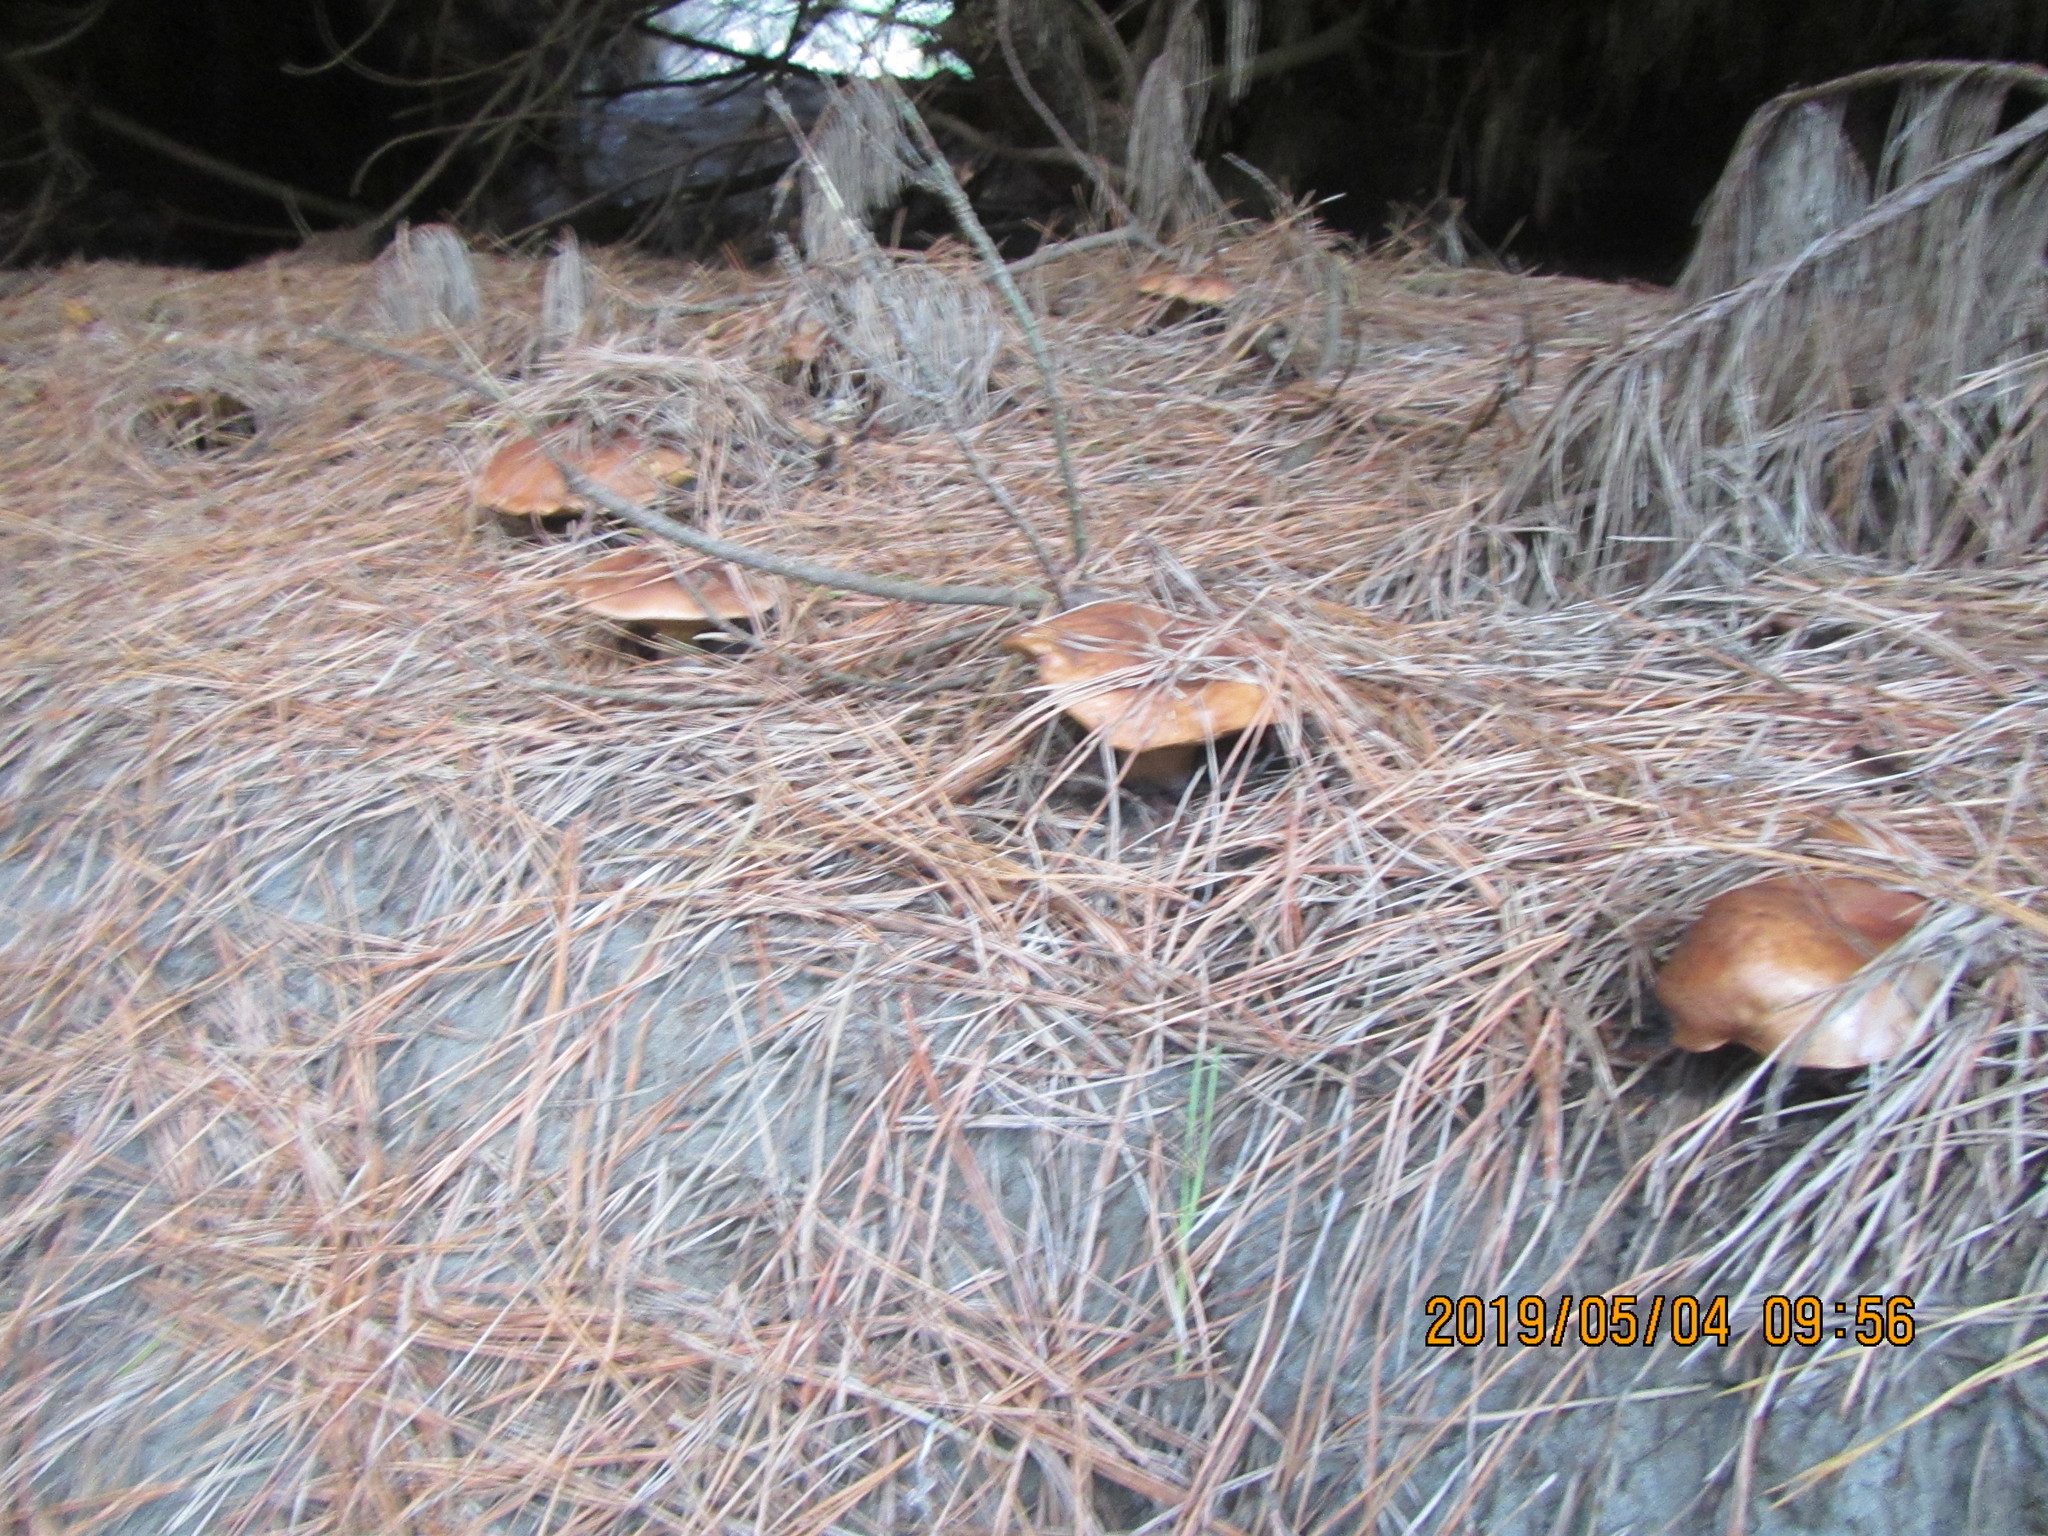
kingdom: Fungi
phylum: Basidiomycota
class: Agaricomycetes
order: Boletales
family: Suillaceae
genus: Suillus
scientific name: Suillus luteus
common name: Slippery jack
